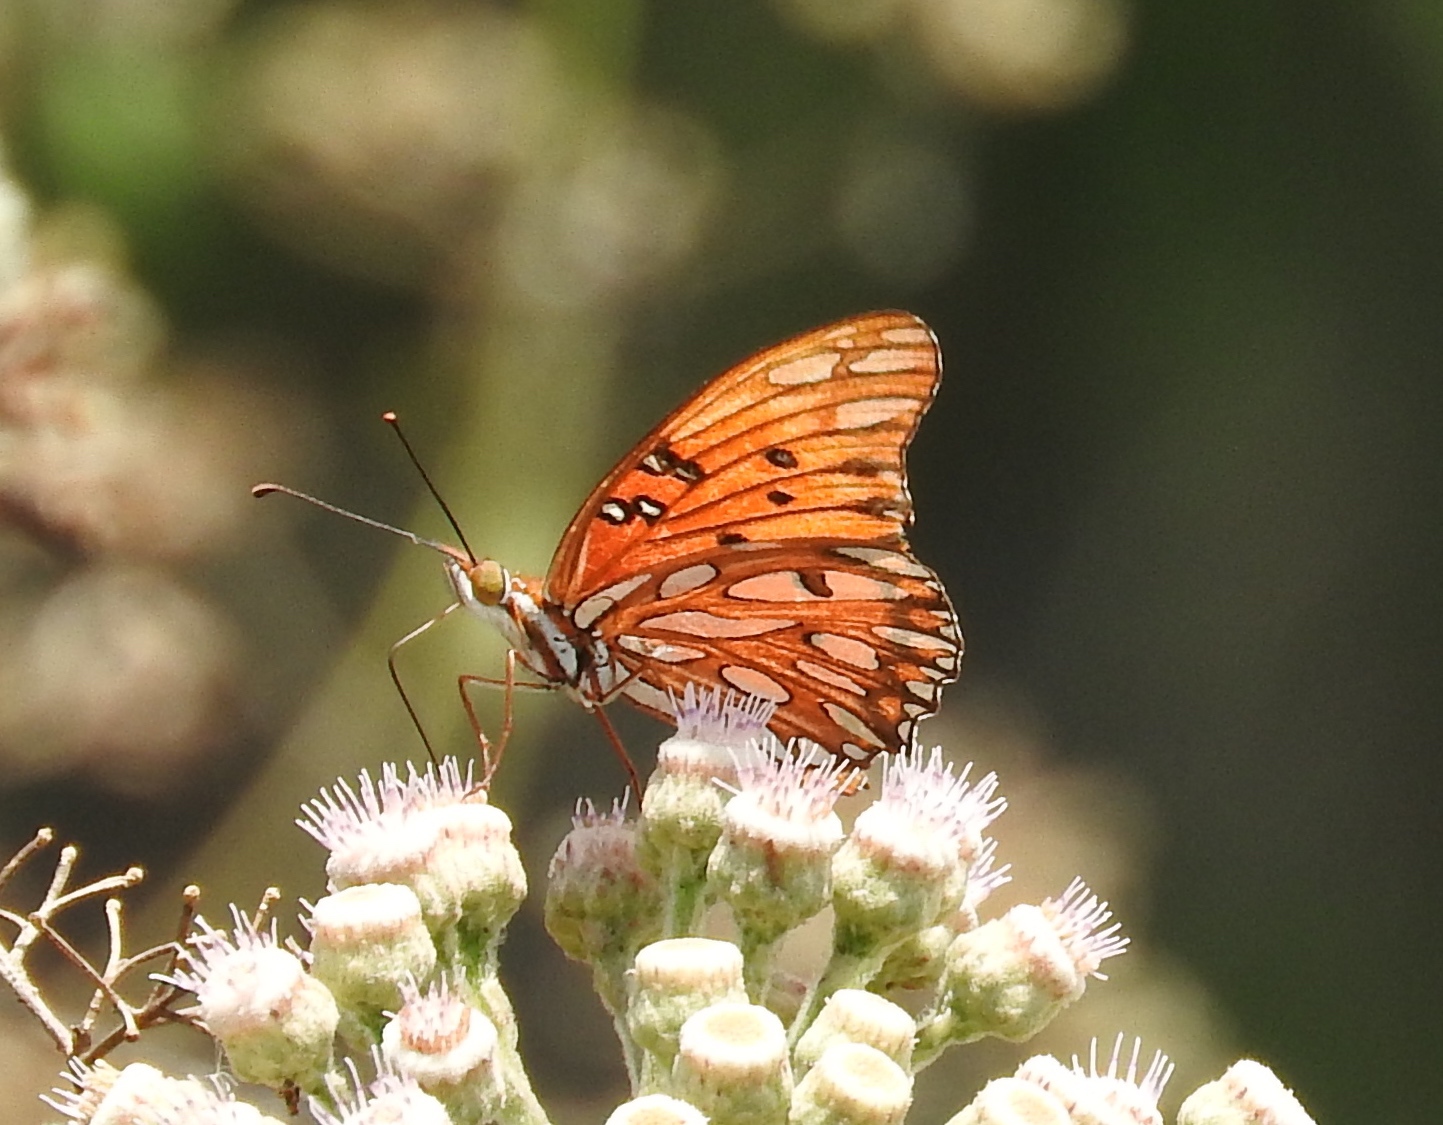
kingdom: Animalia
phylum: Arthropoda
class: Insecta
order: Lepidoptera
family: Nymphalidae
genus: Dione
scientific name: Dione vanillae
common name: Gulf fritillary
